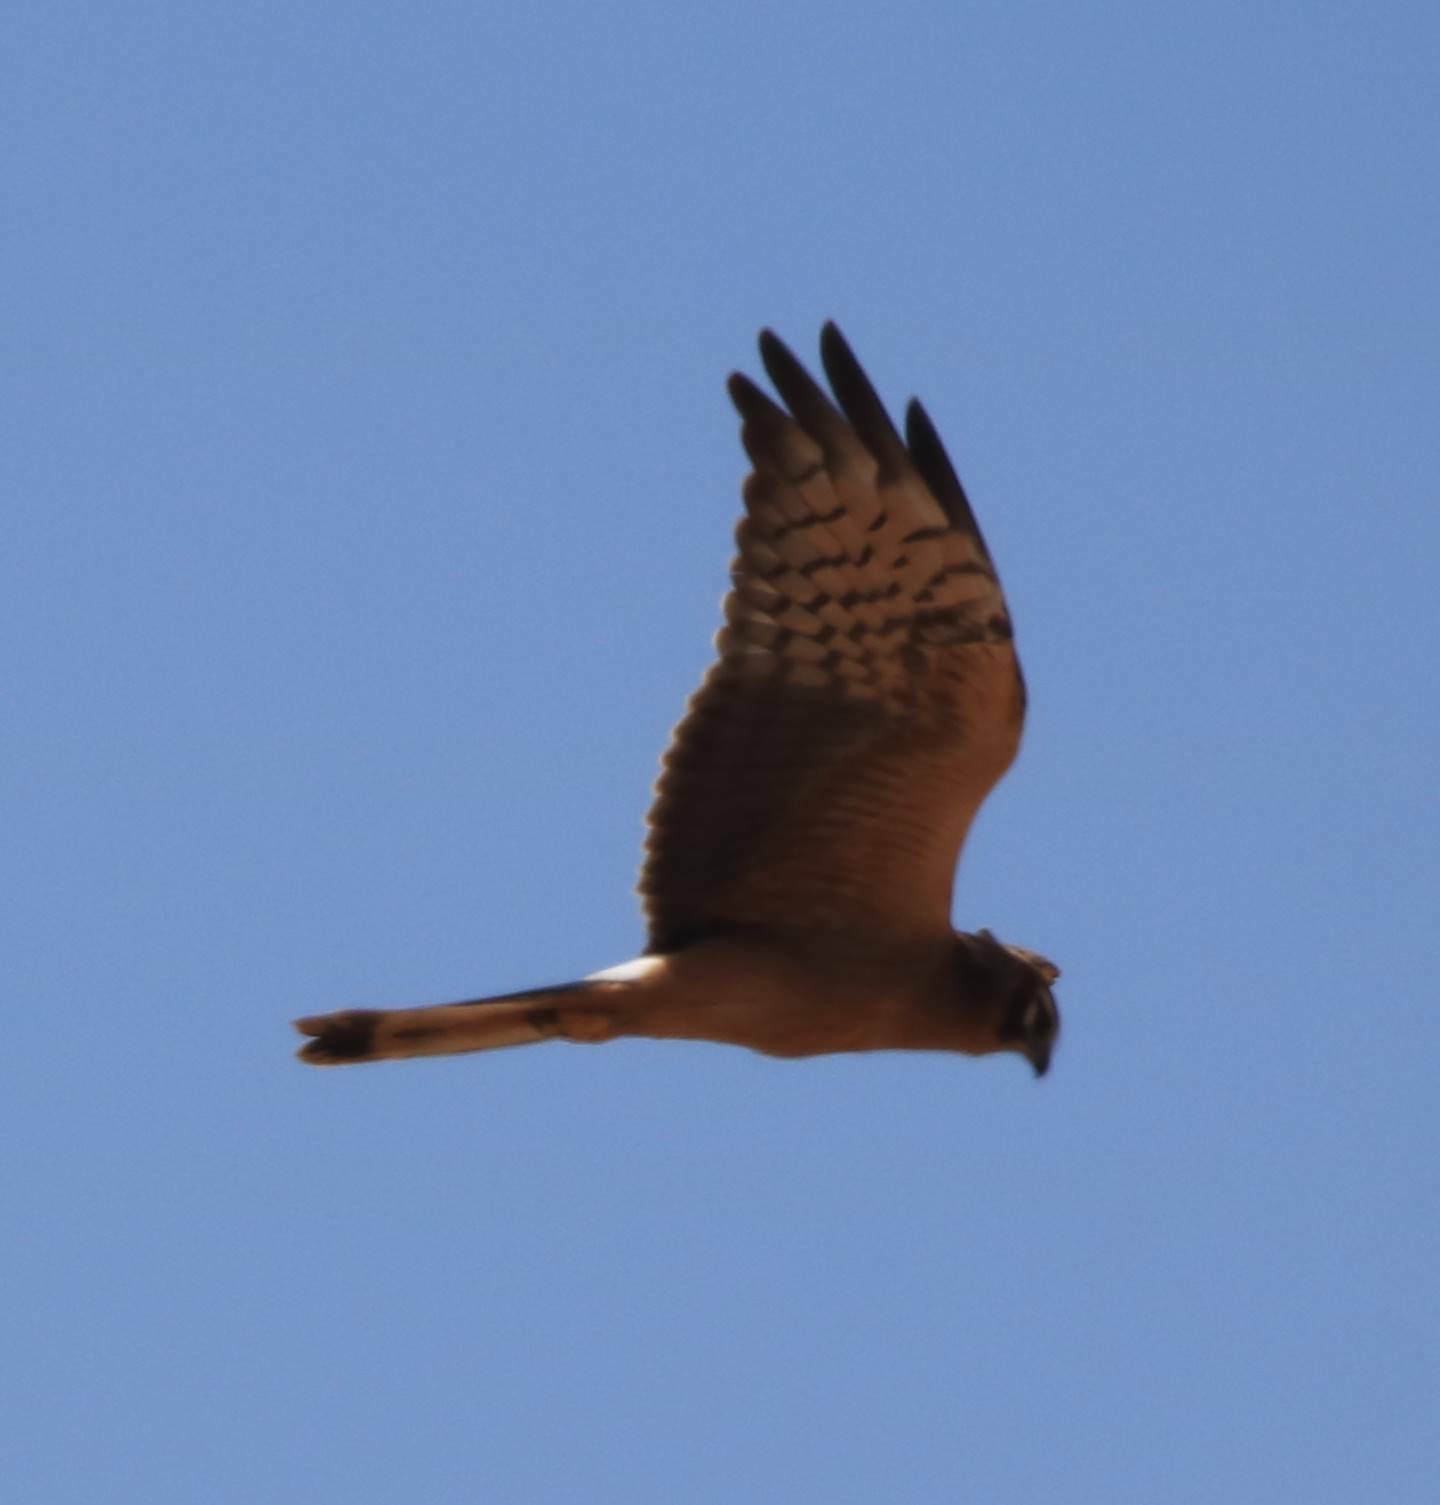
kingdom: Animalia
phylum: Chordata
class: Aves
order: Accipitriformes
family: Accipitridae
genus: Circus
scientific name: Circus pygargus
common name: Montagu's harrier
